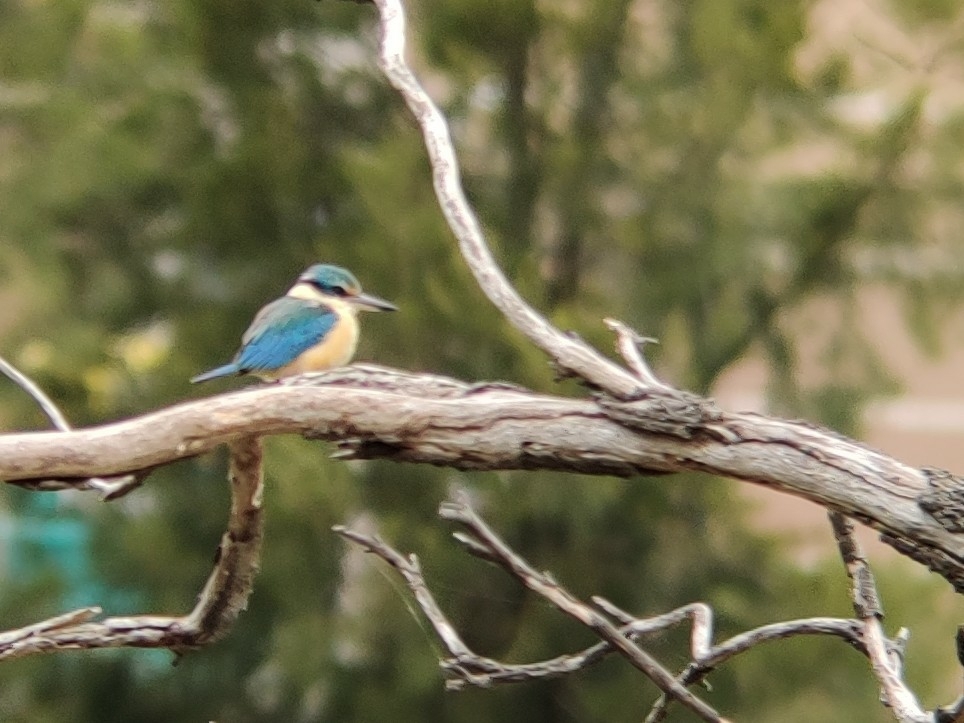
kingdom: Animalia
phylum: Chordata
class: Aves
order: Coraciiformes
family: Alcedinidae
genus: Todiramphus
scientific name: Todiramphus sanctus
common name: Sacred kingfisher
